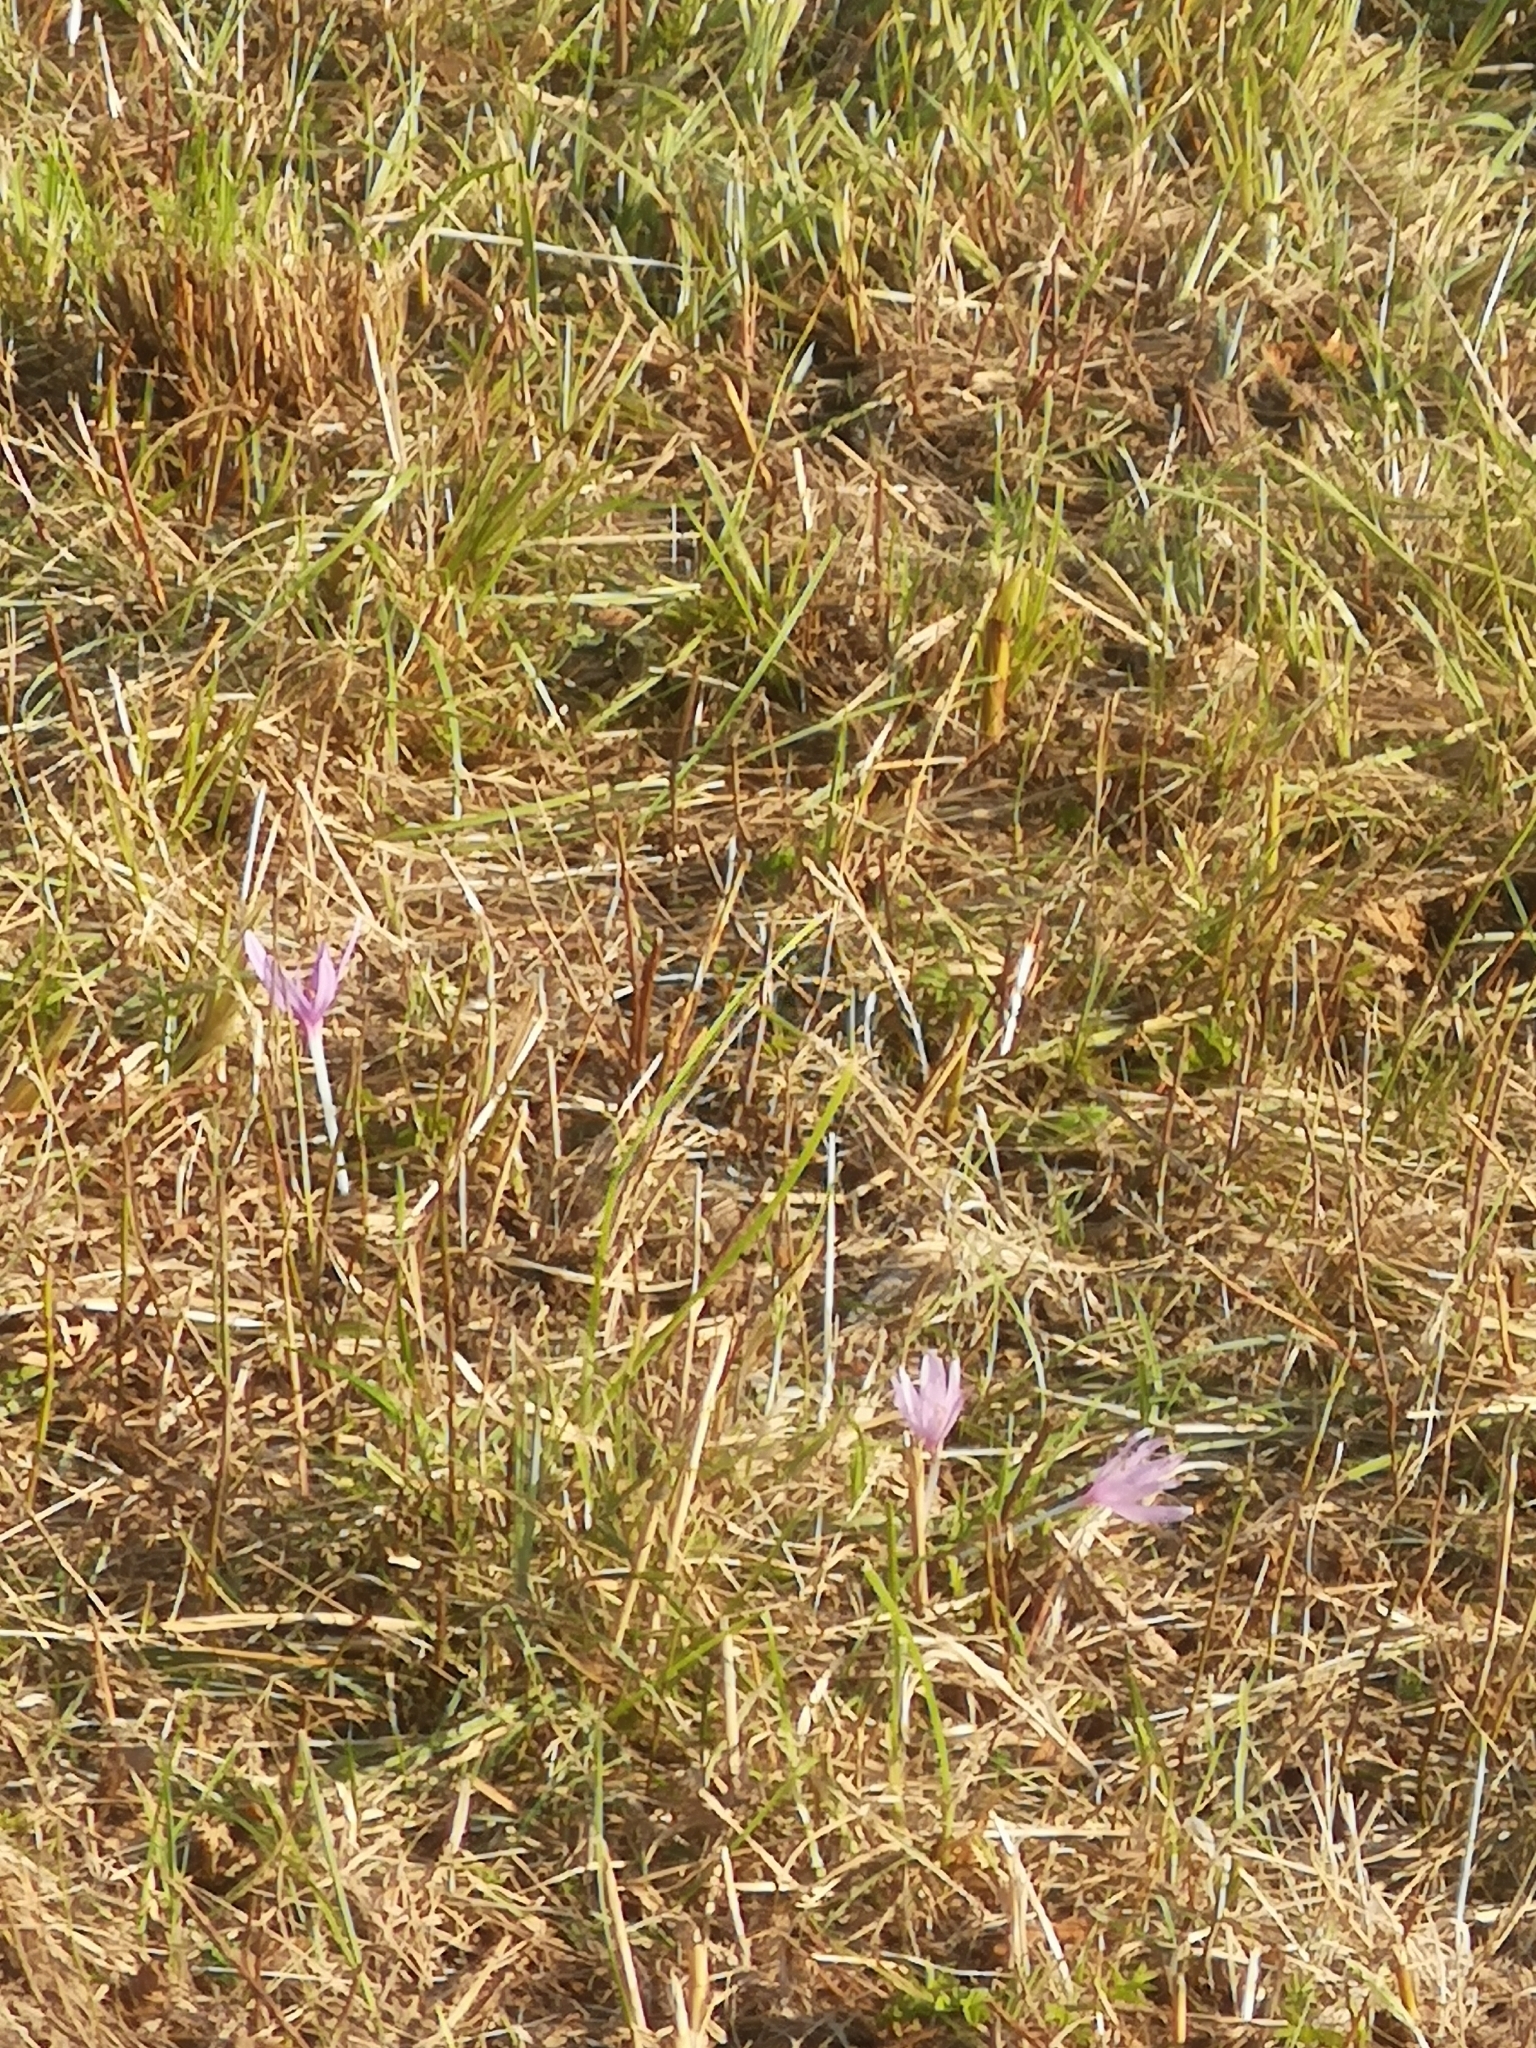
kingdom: Plantae
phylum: Tracheophyta
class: Liliopsida
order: Liliales
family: Colchicaceae
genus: Colchicum
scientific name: Colchicum autumnale
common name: Autumn crocus
